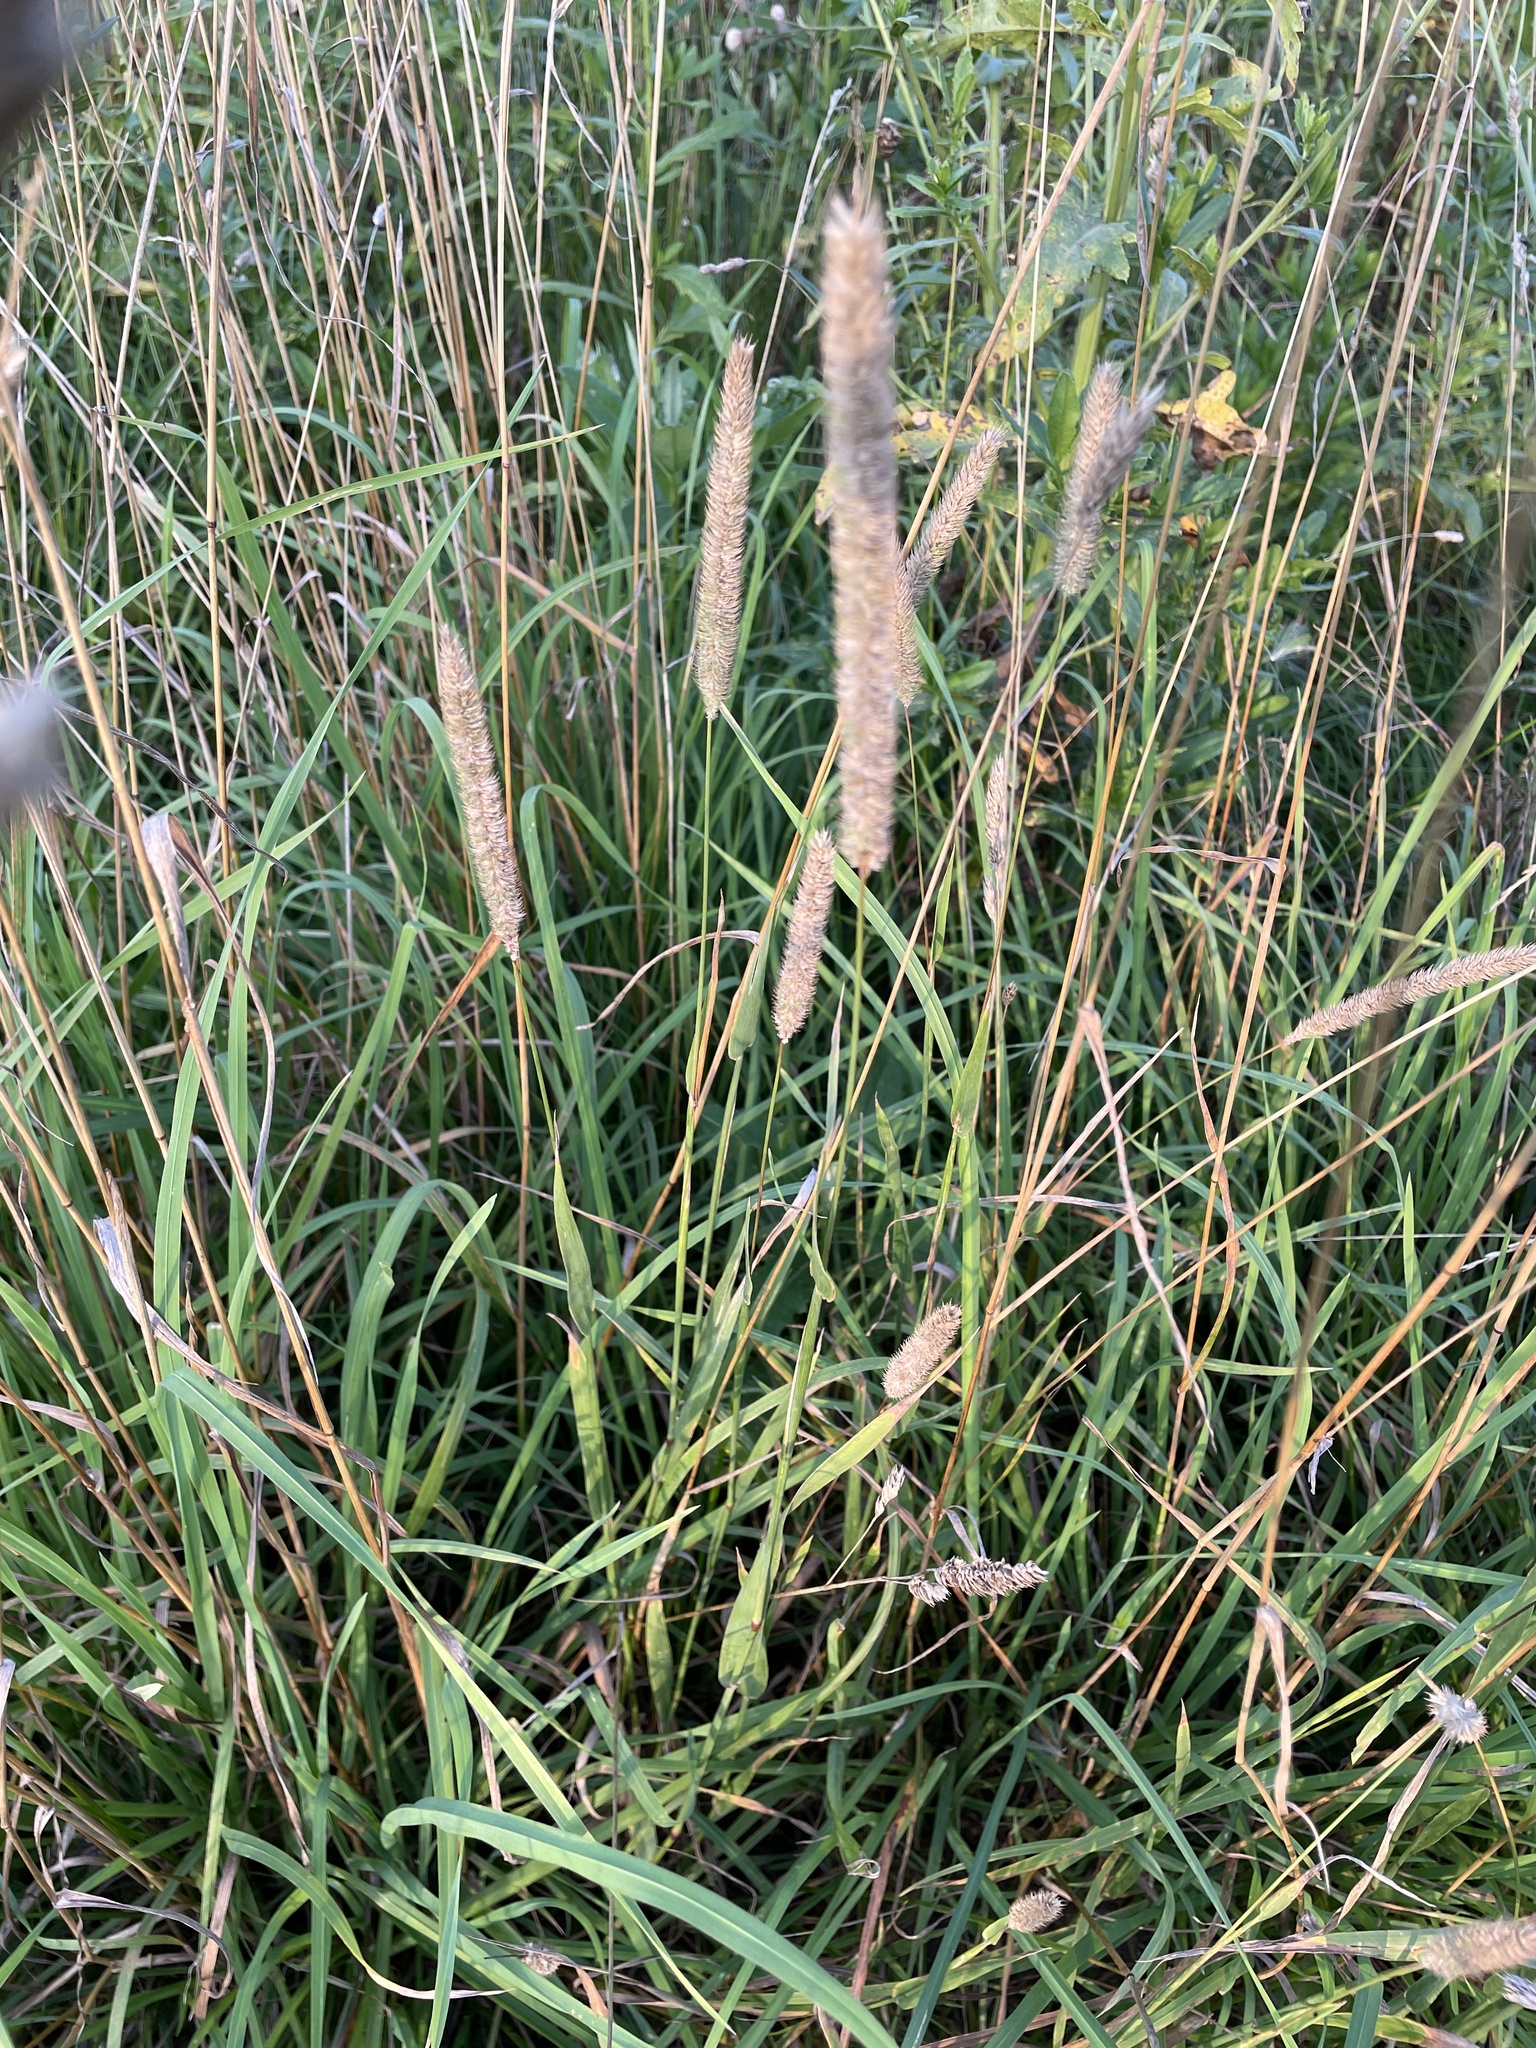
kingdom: Plantae
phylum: Tracheophyta
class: Liliopsida
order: Poales
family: Poaceae
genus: Phleum
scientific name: Phleum pratense
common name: Timothy grass
